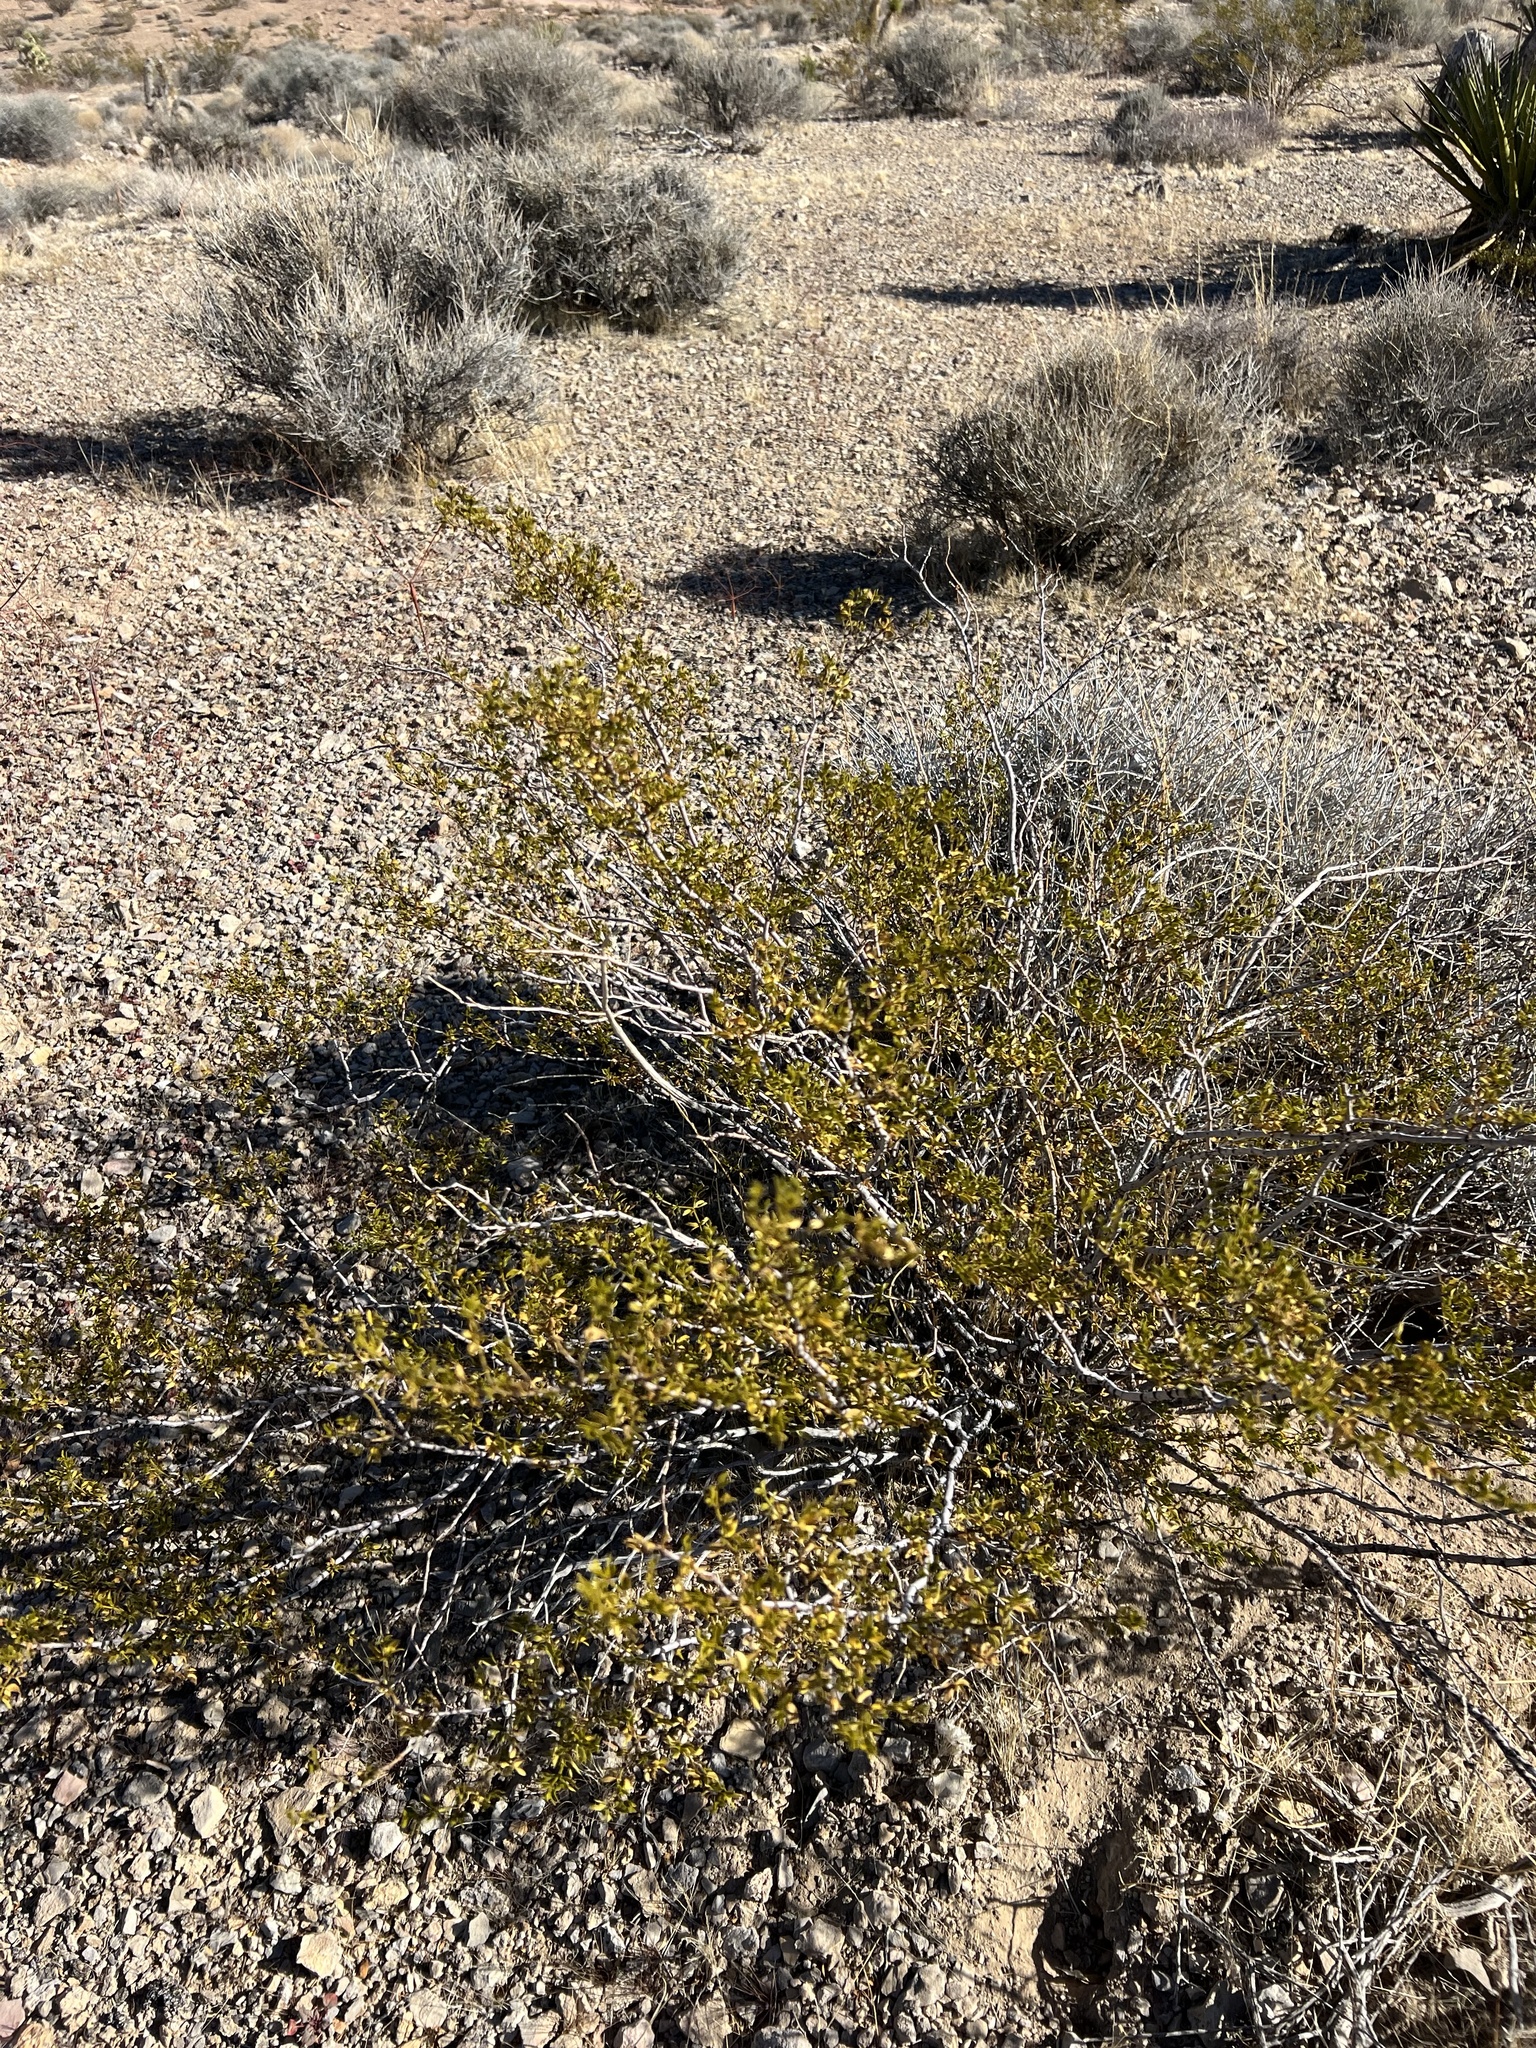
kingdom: Plantae
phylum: Tracheophyta
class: Magnoliopsida
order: Zygophyllales
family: Zygophyllaceae
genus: Larrea
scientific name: Larrea tridentata
